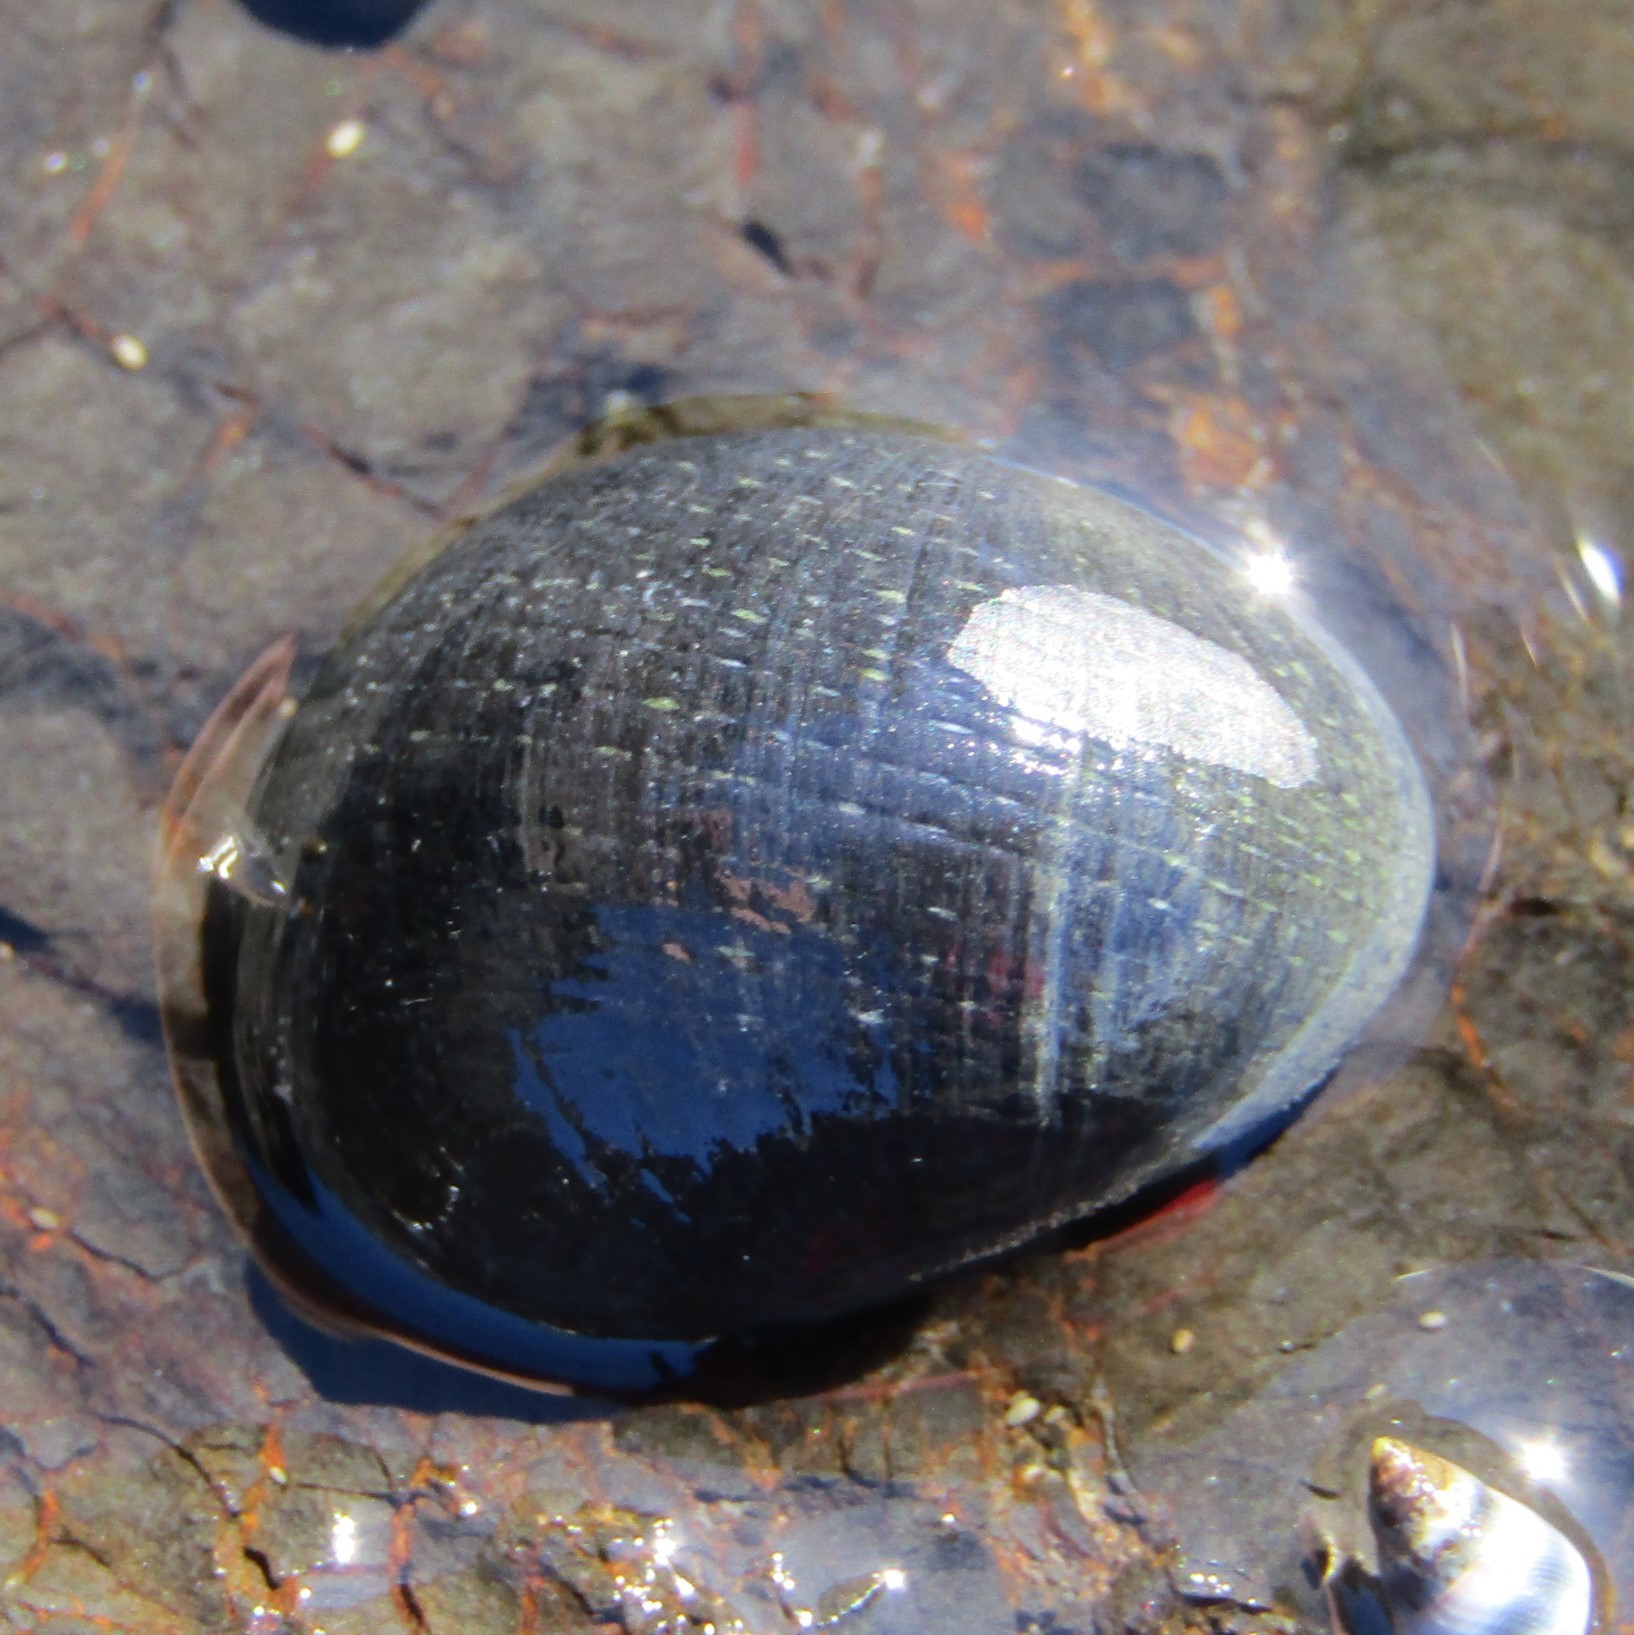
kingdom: Animalia
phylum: Mollusca
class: Gastropoda
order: Cycloneritida
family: Neritidae
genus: Nerita
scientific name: Nerita melanotragus
